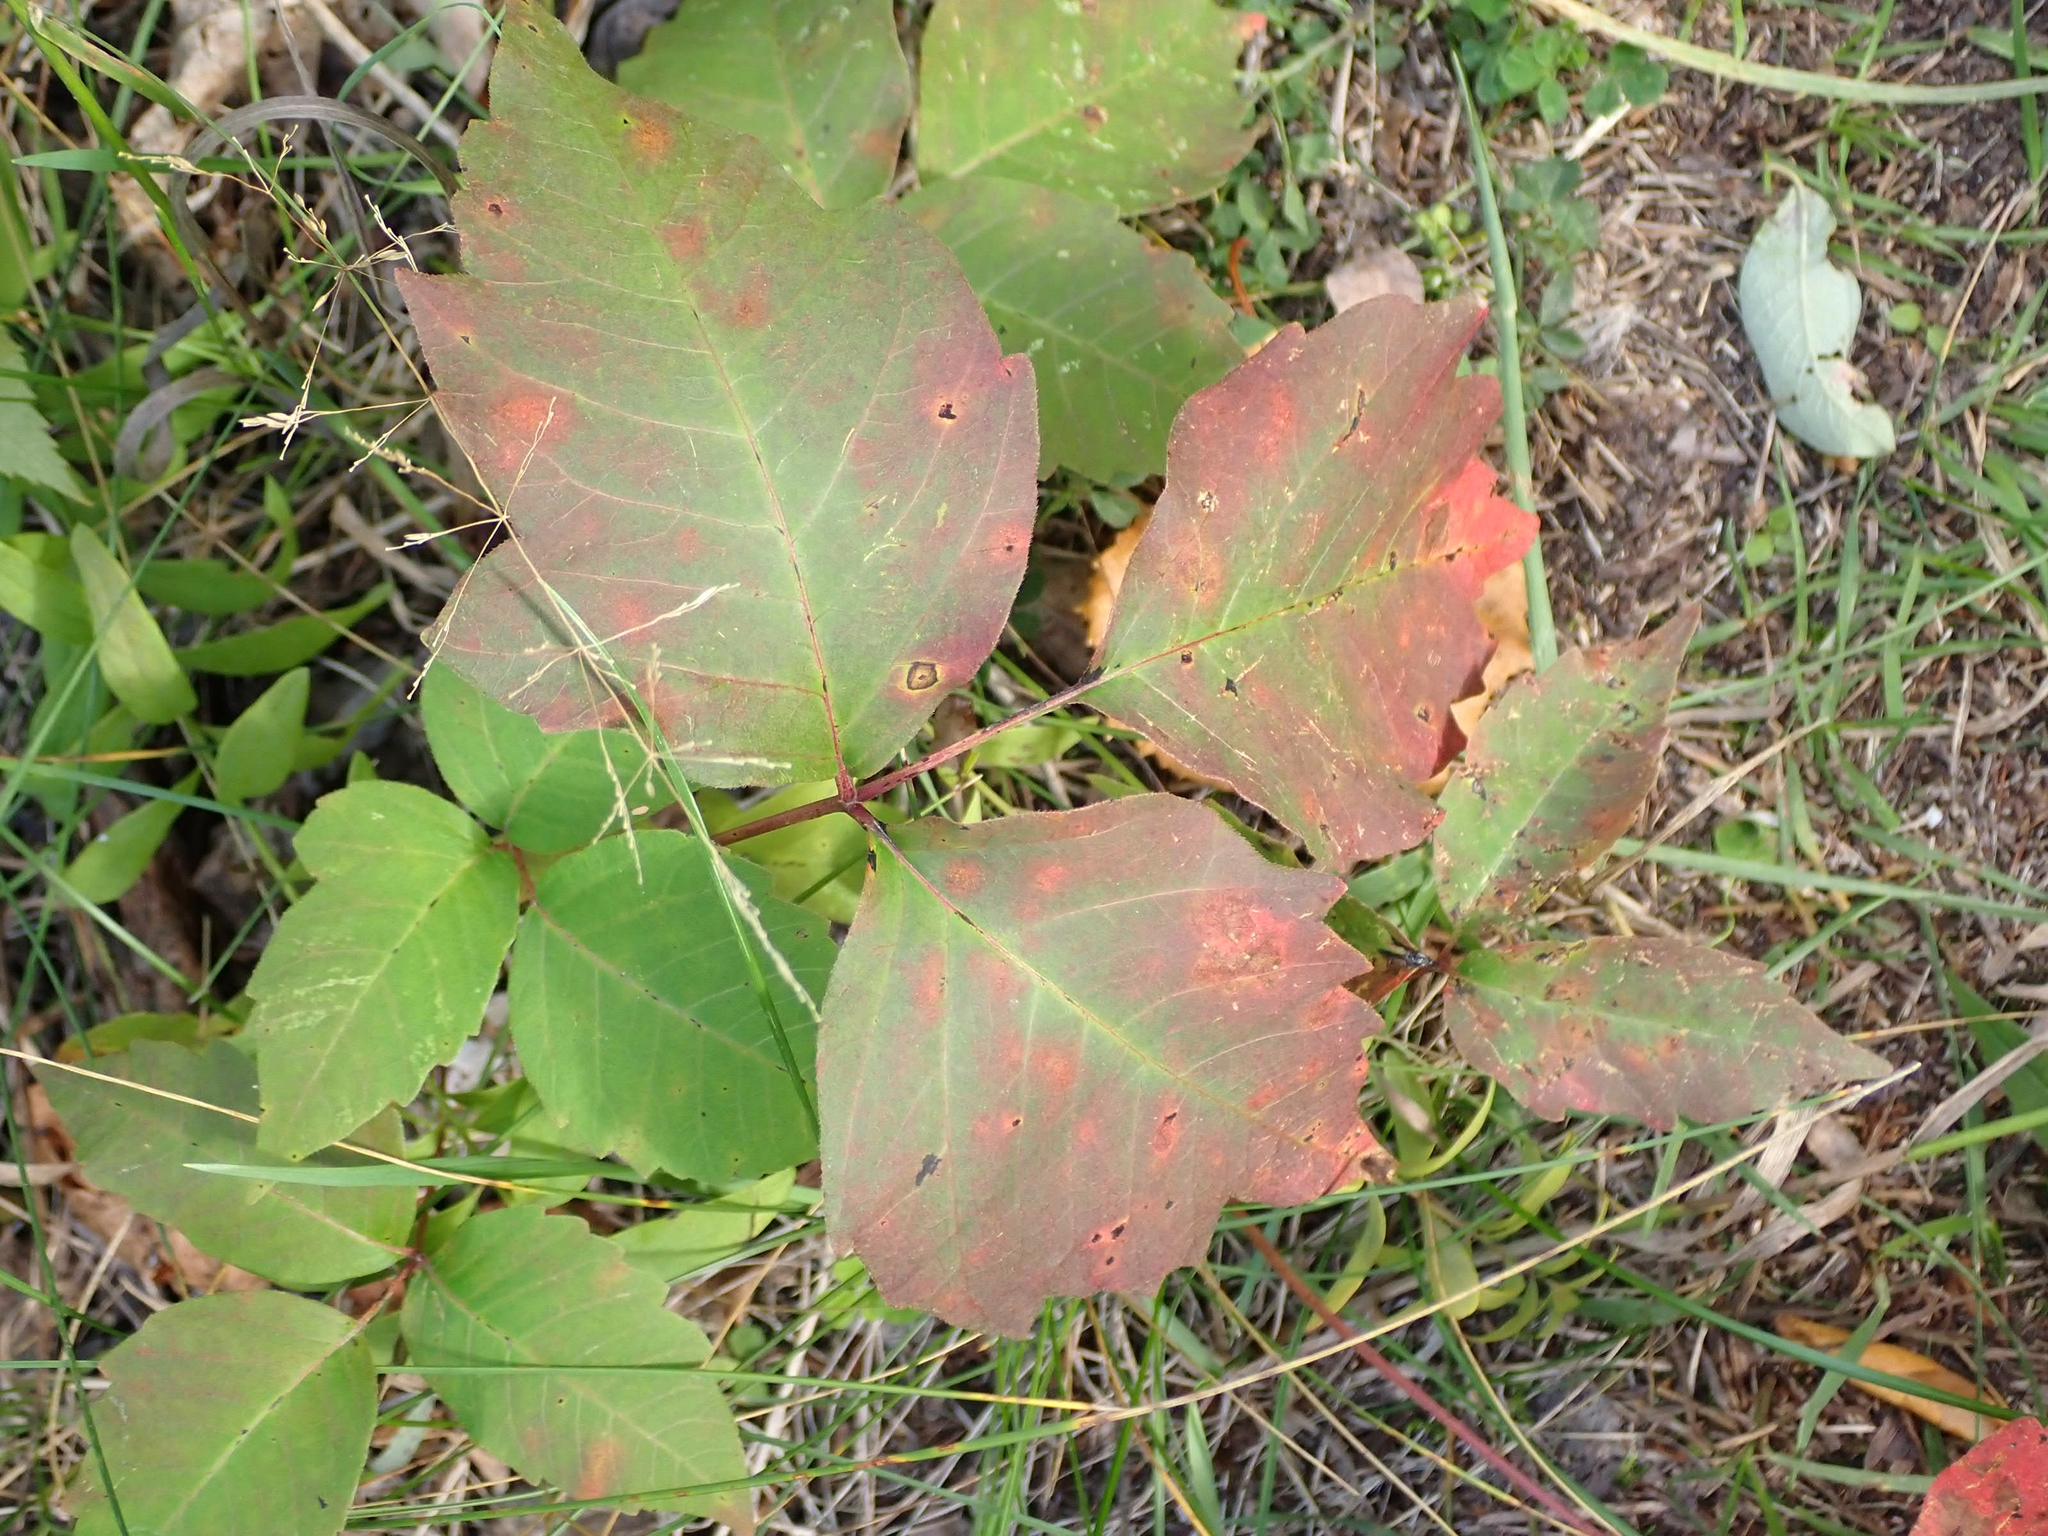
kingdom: Plantae
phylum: Tracheophyta
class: Magnoliopsida
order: Sapindales
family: Anacardiaceae
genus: Toxicodendron
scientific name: Toxicodendron rydbergii
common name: Rydberg's poison-ivy
